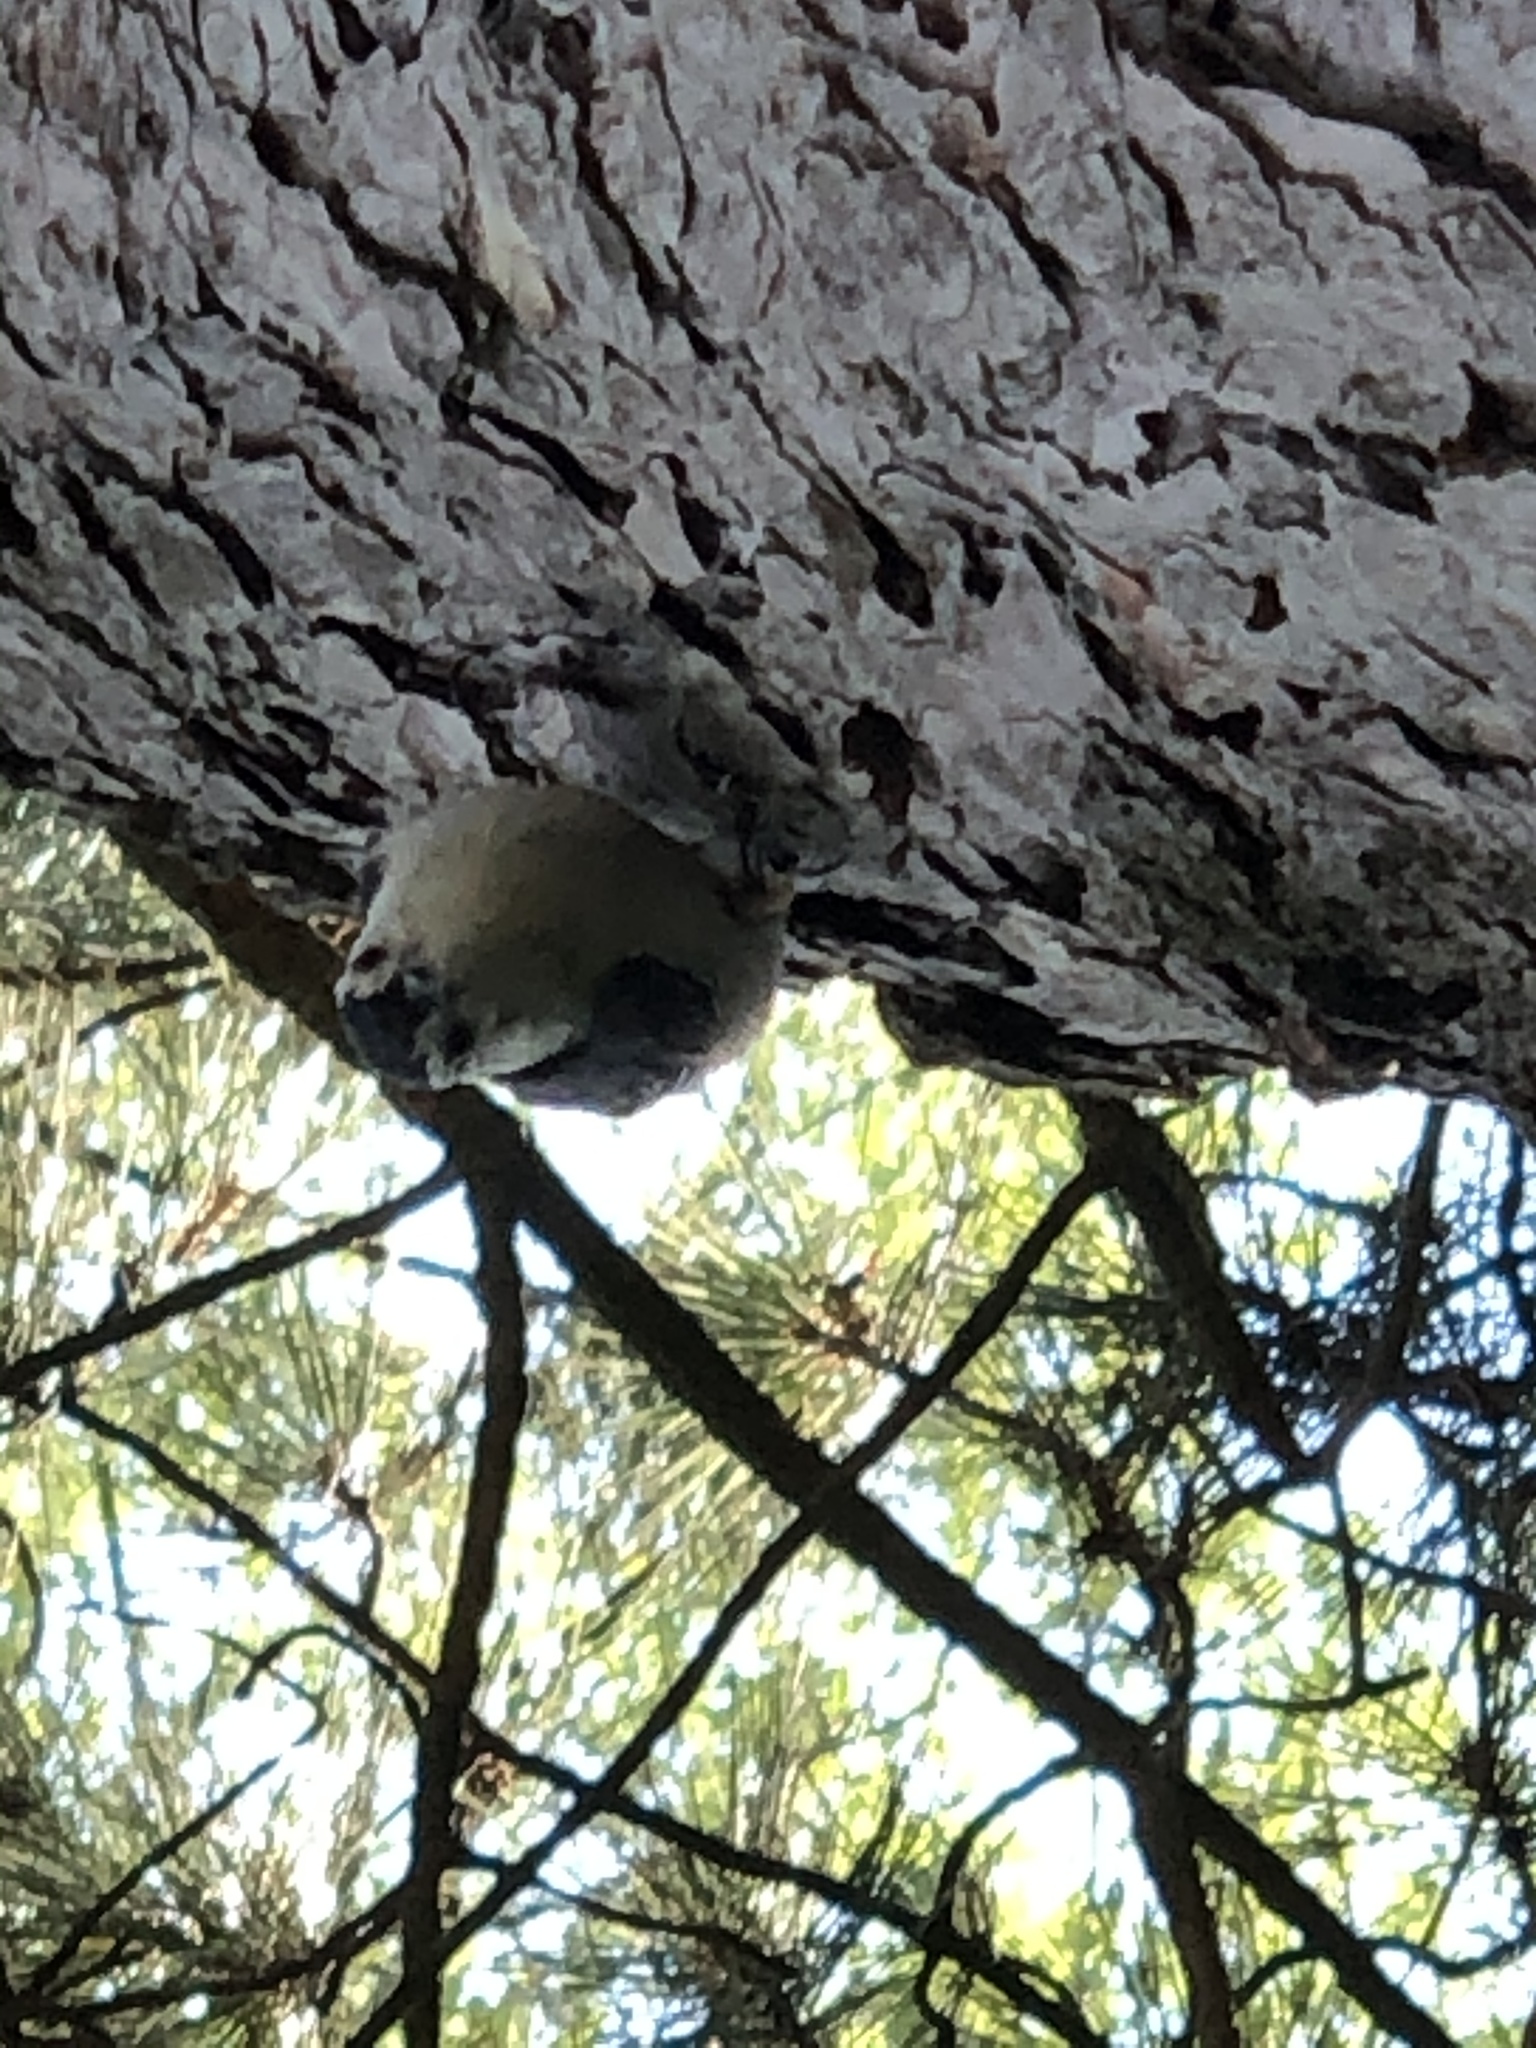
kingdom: Animalia
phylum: Chordata
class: Aves
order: Passeriformes
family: Sittidae
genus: Sitta
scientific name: Sitta carolinensis
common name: White-breasted nuthatch
